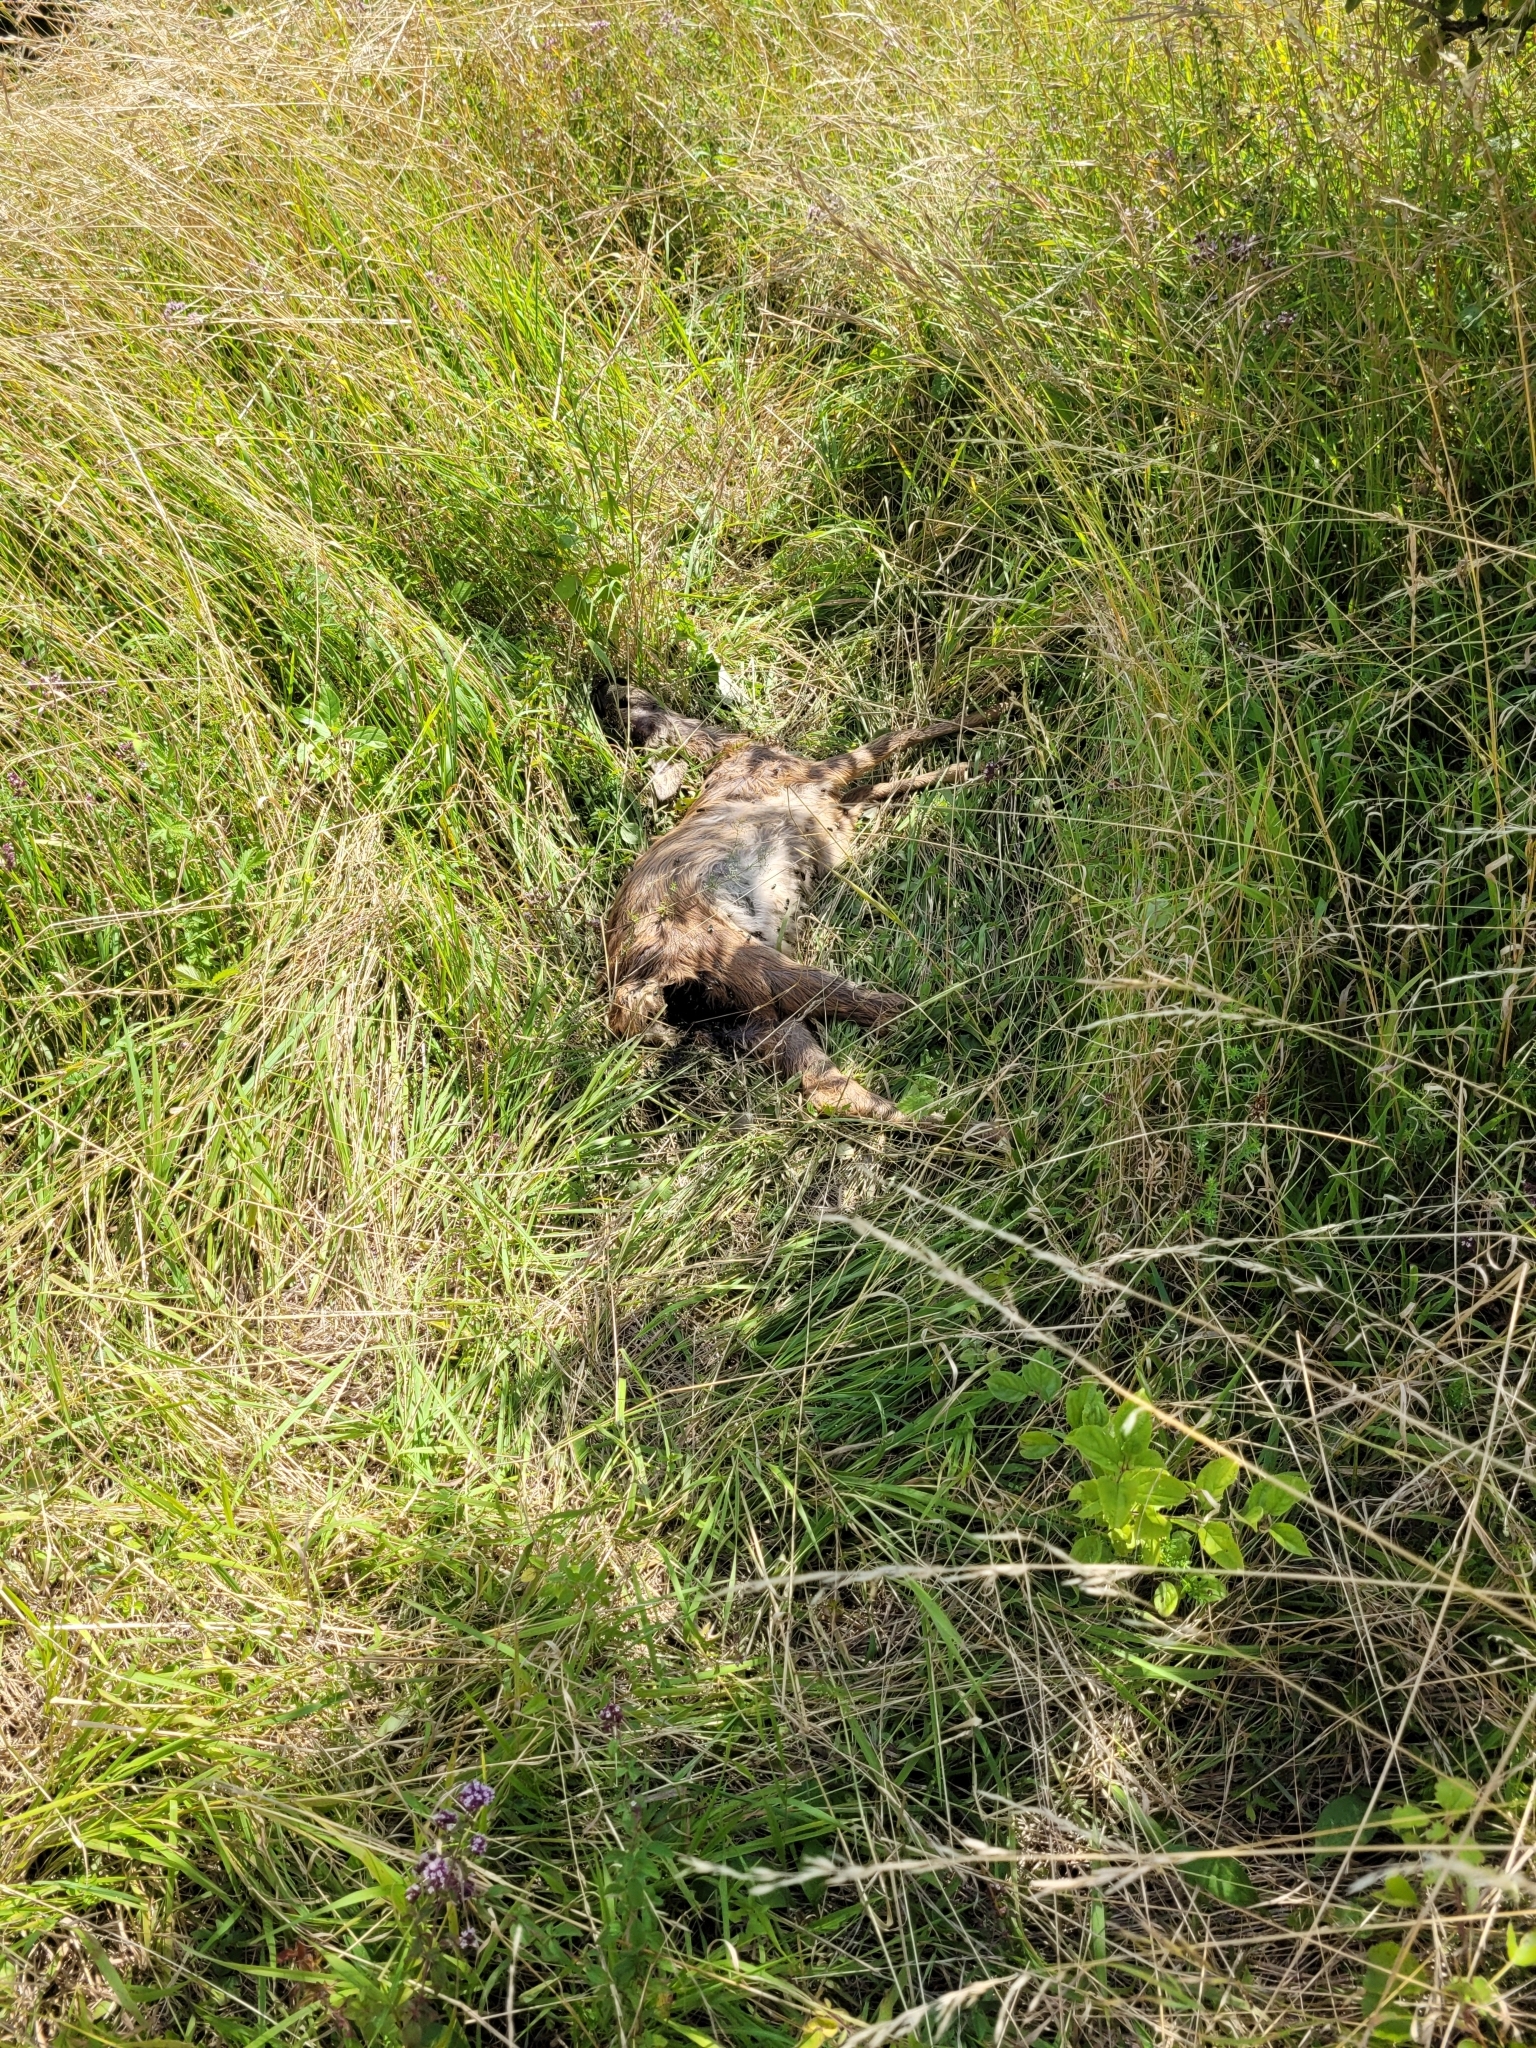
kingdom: Animalia
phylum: Chordata
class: Mammalia
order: Artiodactyla
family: Cervidae
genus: Capreolus
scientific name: Capreolus capreolus
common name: Western roe deer
